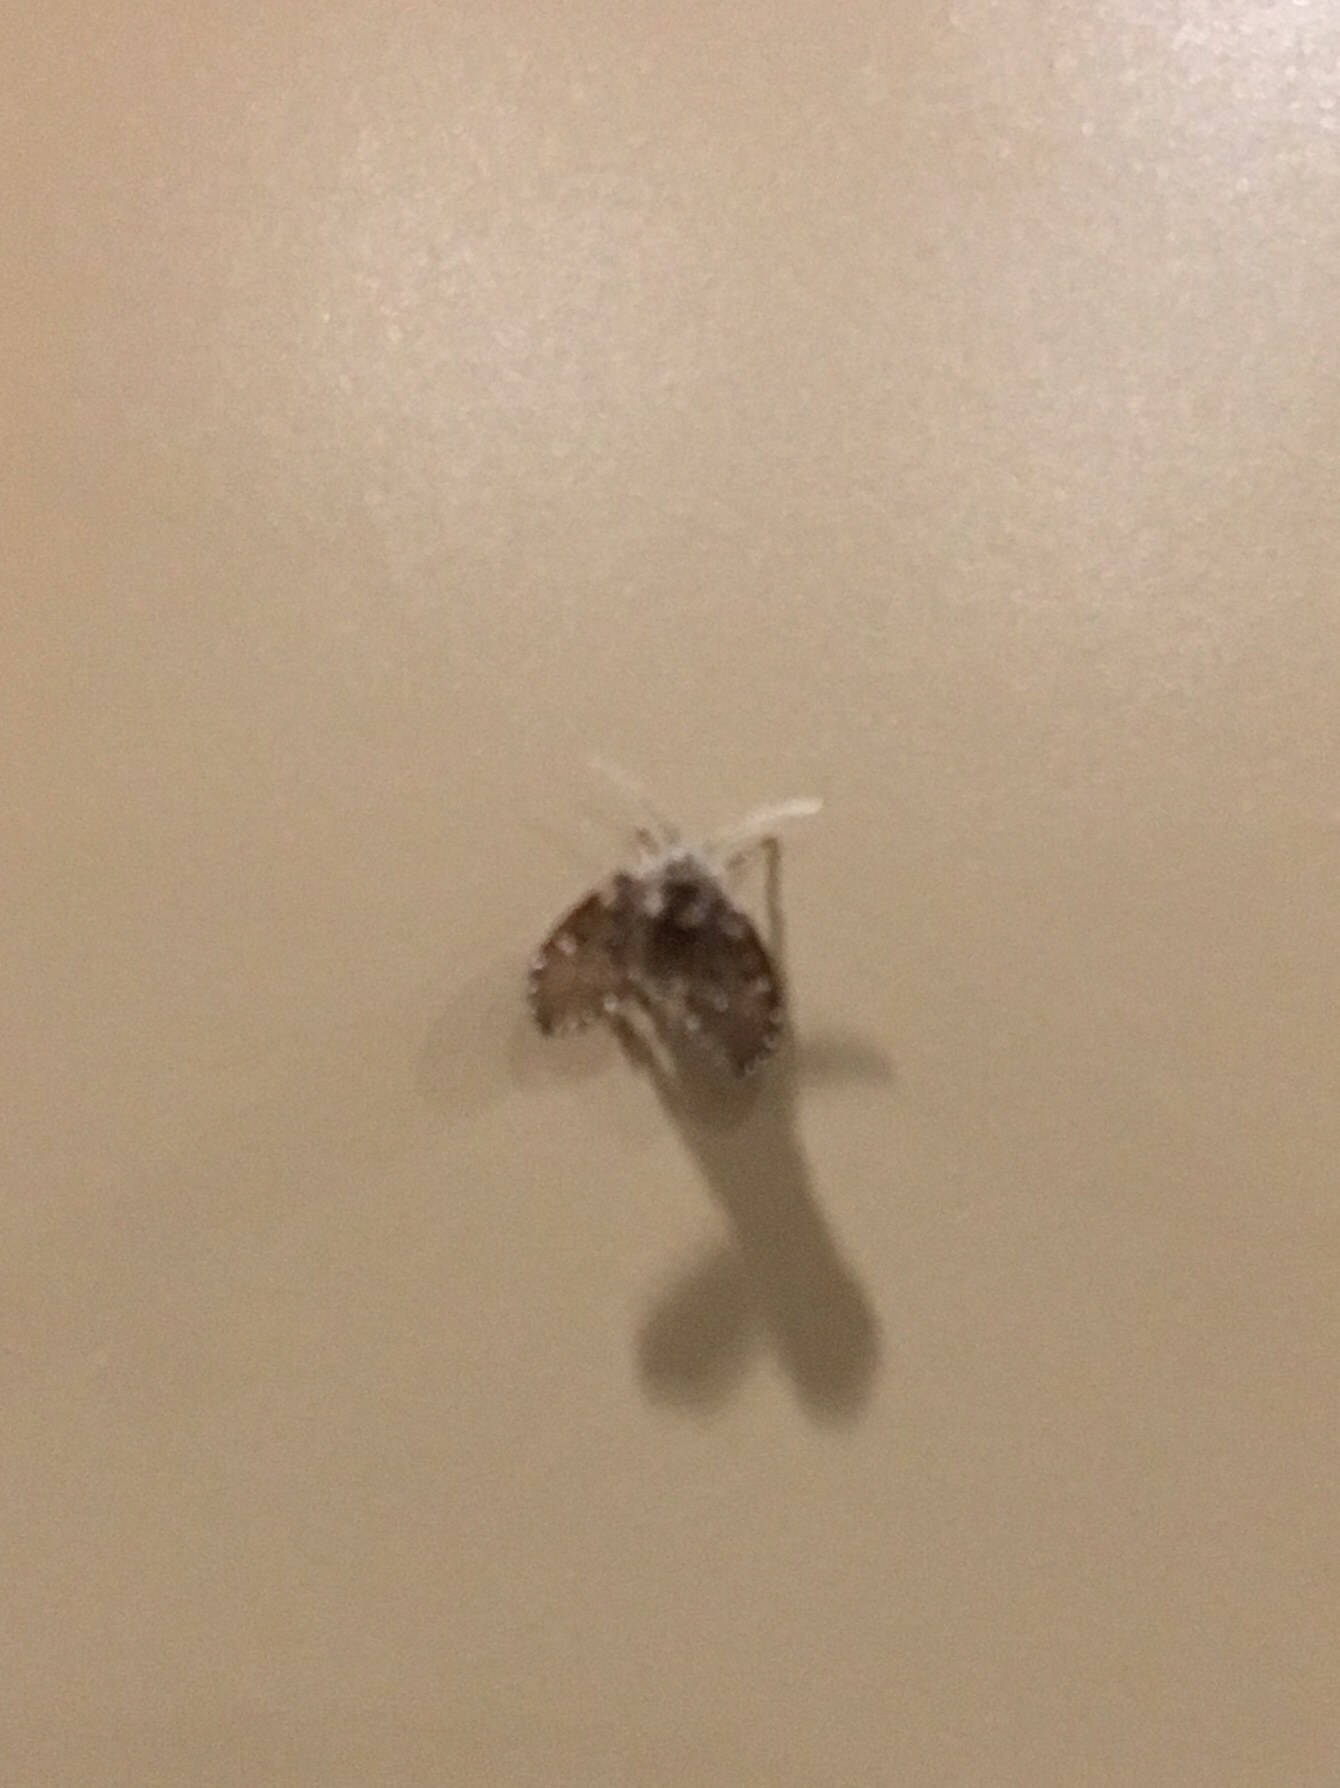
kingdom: Animalia
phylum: Arthropoda
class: Insecta
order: Diptera
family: Psychodidae
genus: Clogmia
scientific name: Clogmia albipunctatus
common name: White-spotted moth fly
